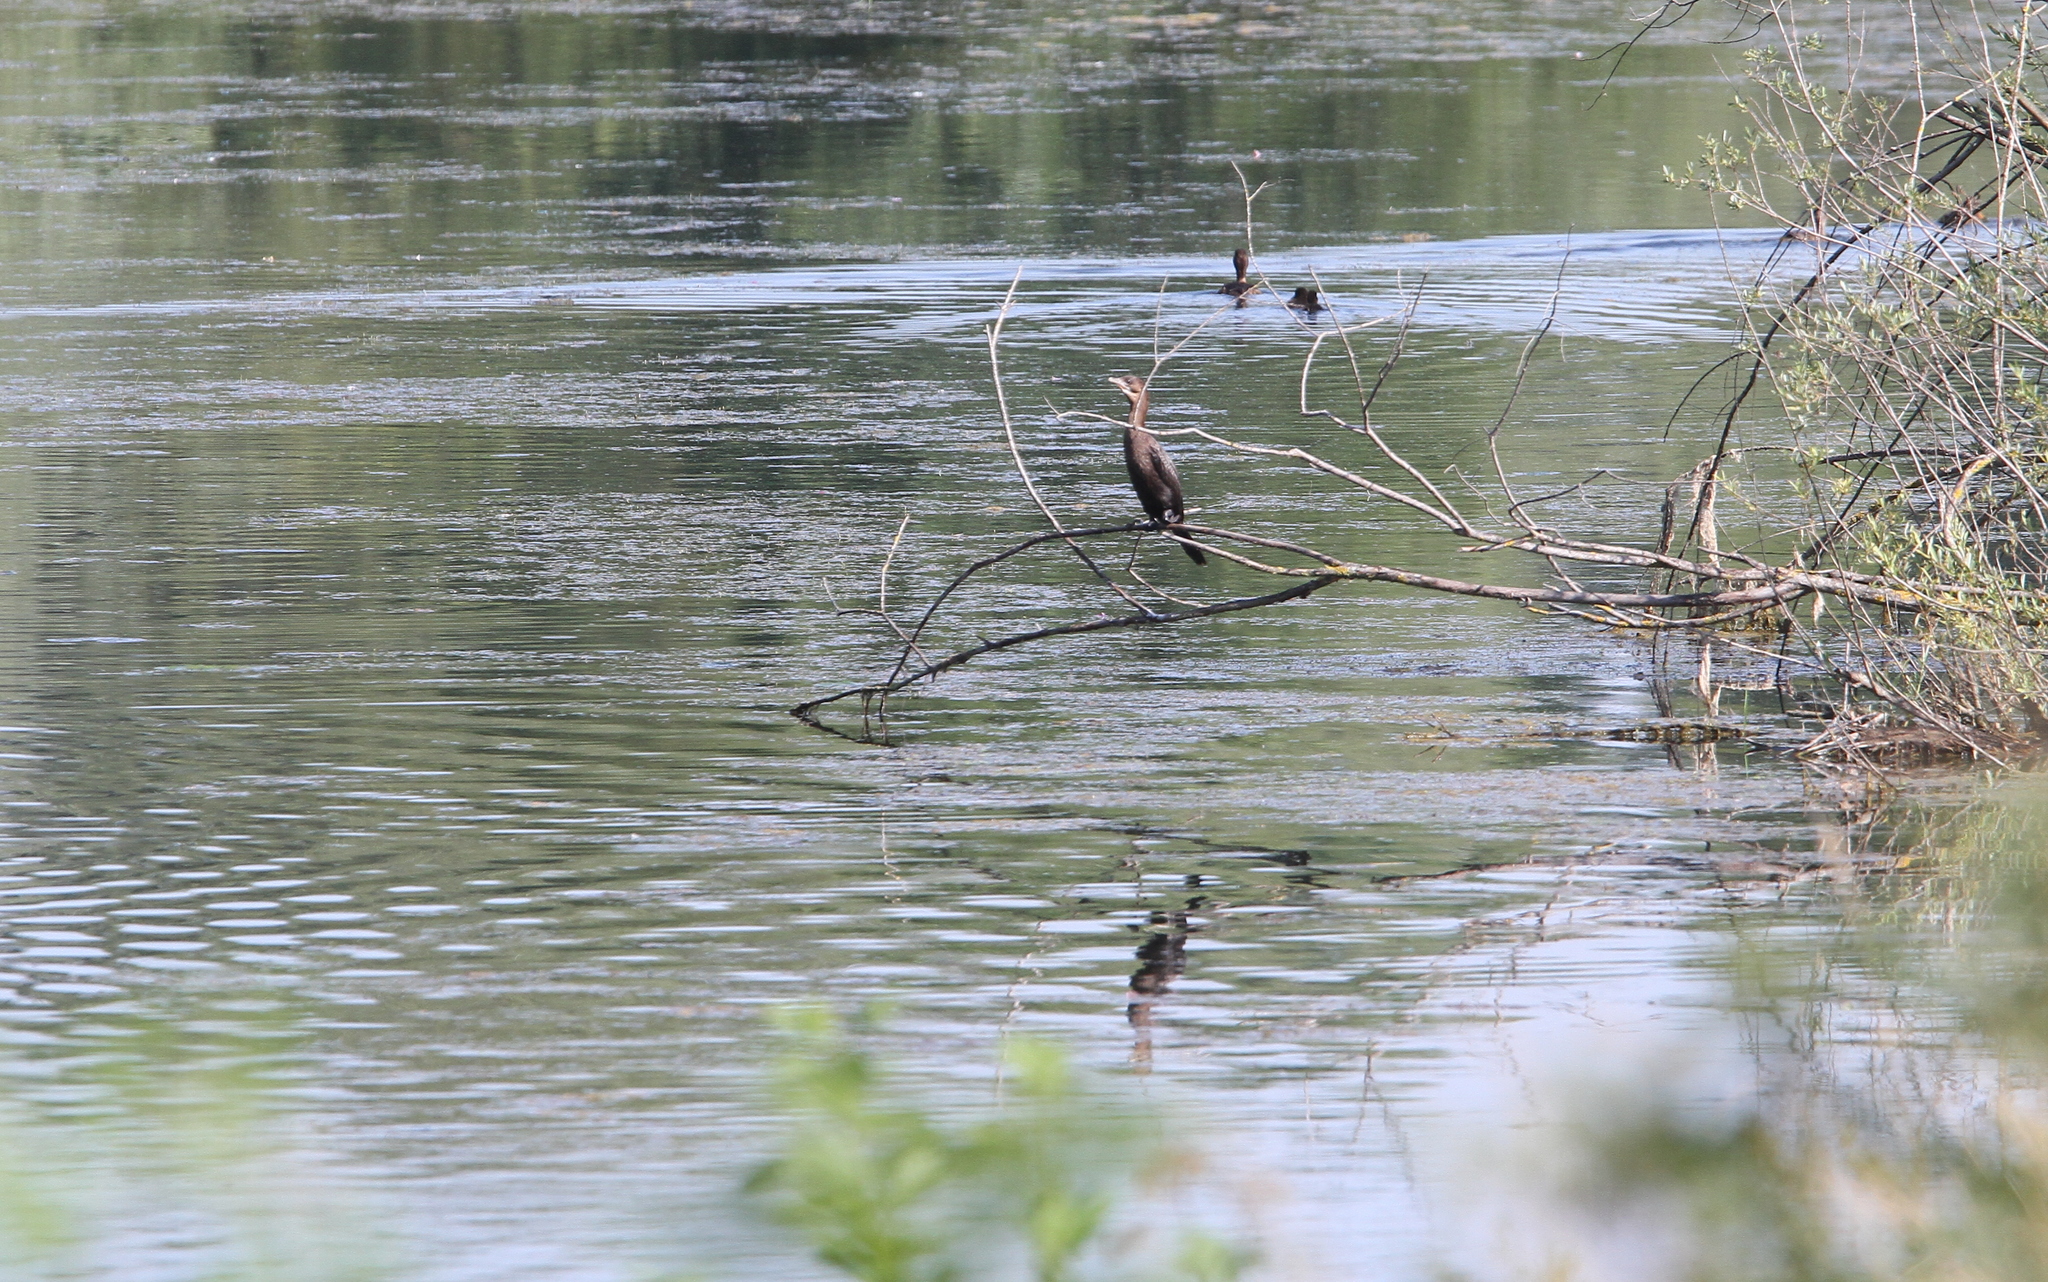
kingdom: Animalia
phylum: Chordata
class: Aves
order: Suliformes
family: Phalacrocoracidae
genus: Microcarbo
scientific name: Microcarbo pygmaeus
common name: Pygmy cormorant
